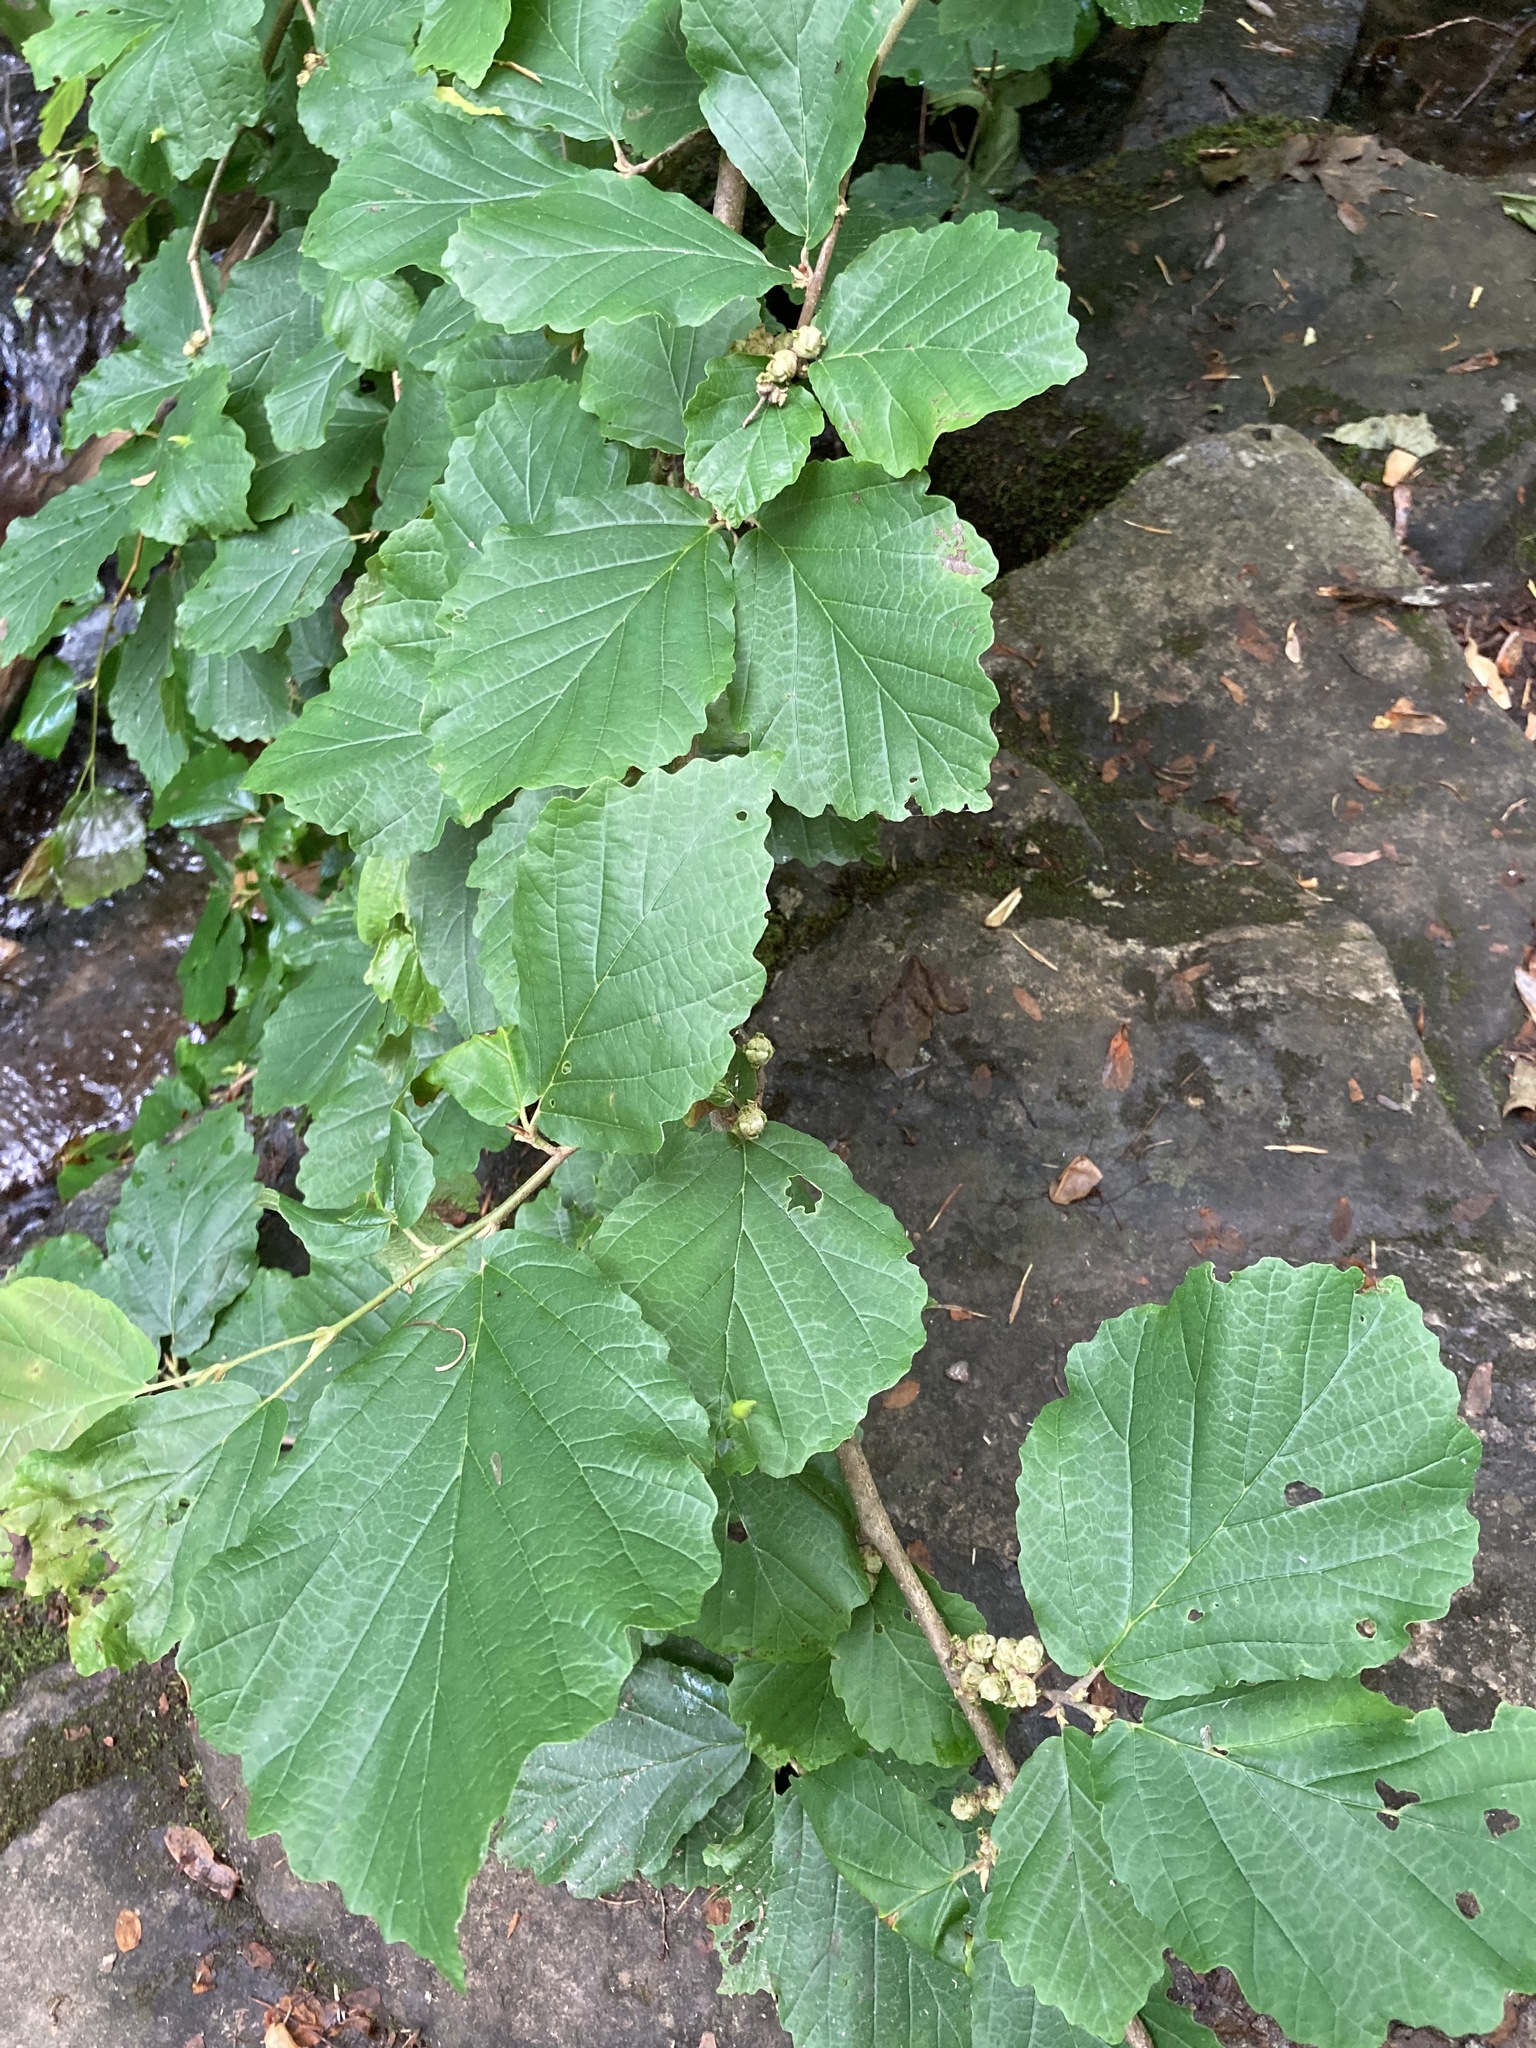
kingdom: Plantae
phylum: Tracheophyta
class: Magnoliopsida
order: Saxifragales
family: Hamamelidaceae
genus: Hamamelis
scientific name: Hamamelis virginiana
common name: Witch-hazel
